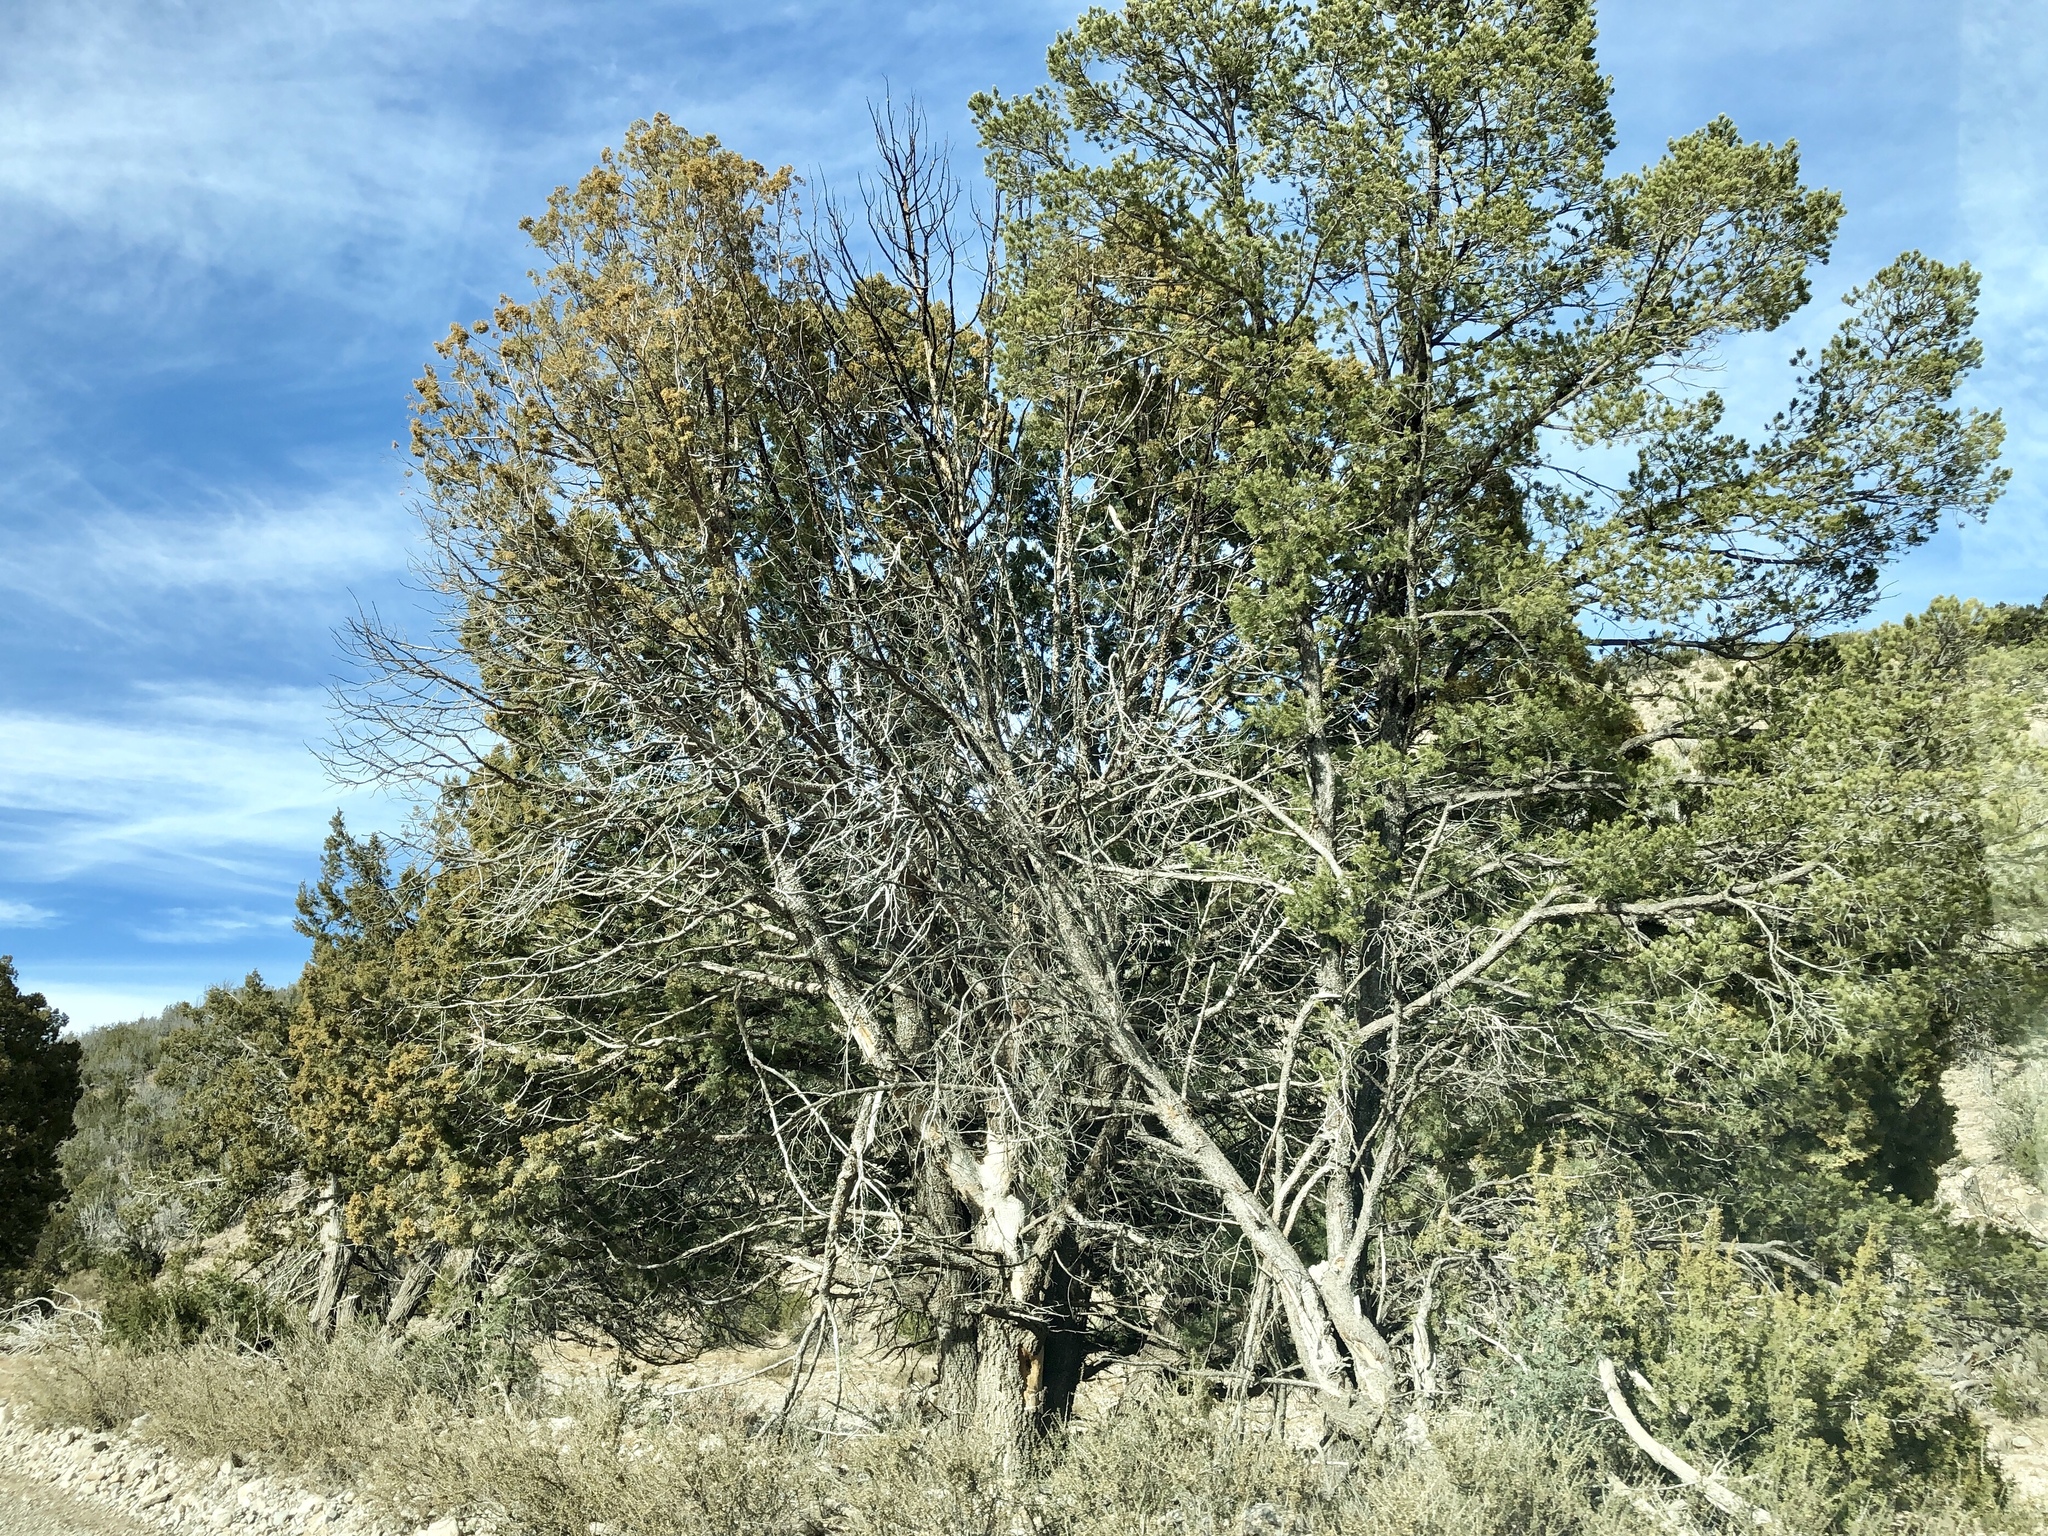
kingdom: Plantae
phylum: Tracheophyta
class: Pinopsida
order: Pinales
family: Cupressaceae
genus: Juniperus
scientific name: Juniperus deppeana
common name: Alligator juniper
